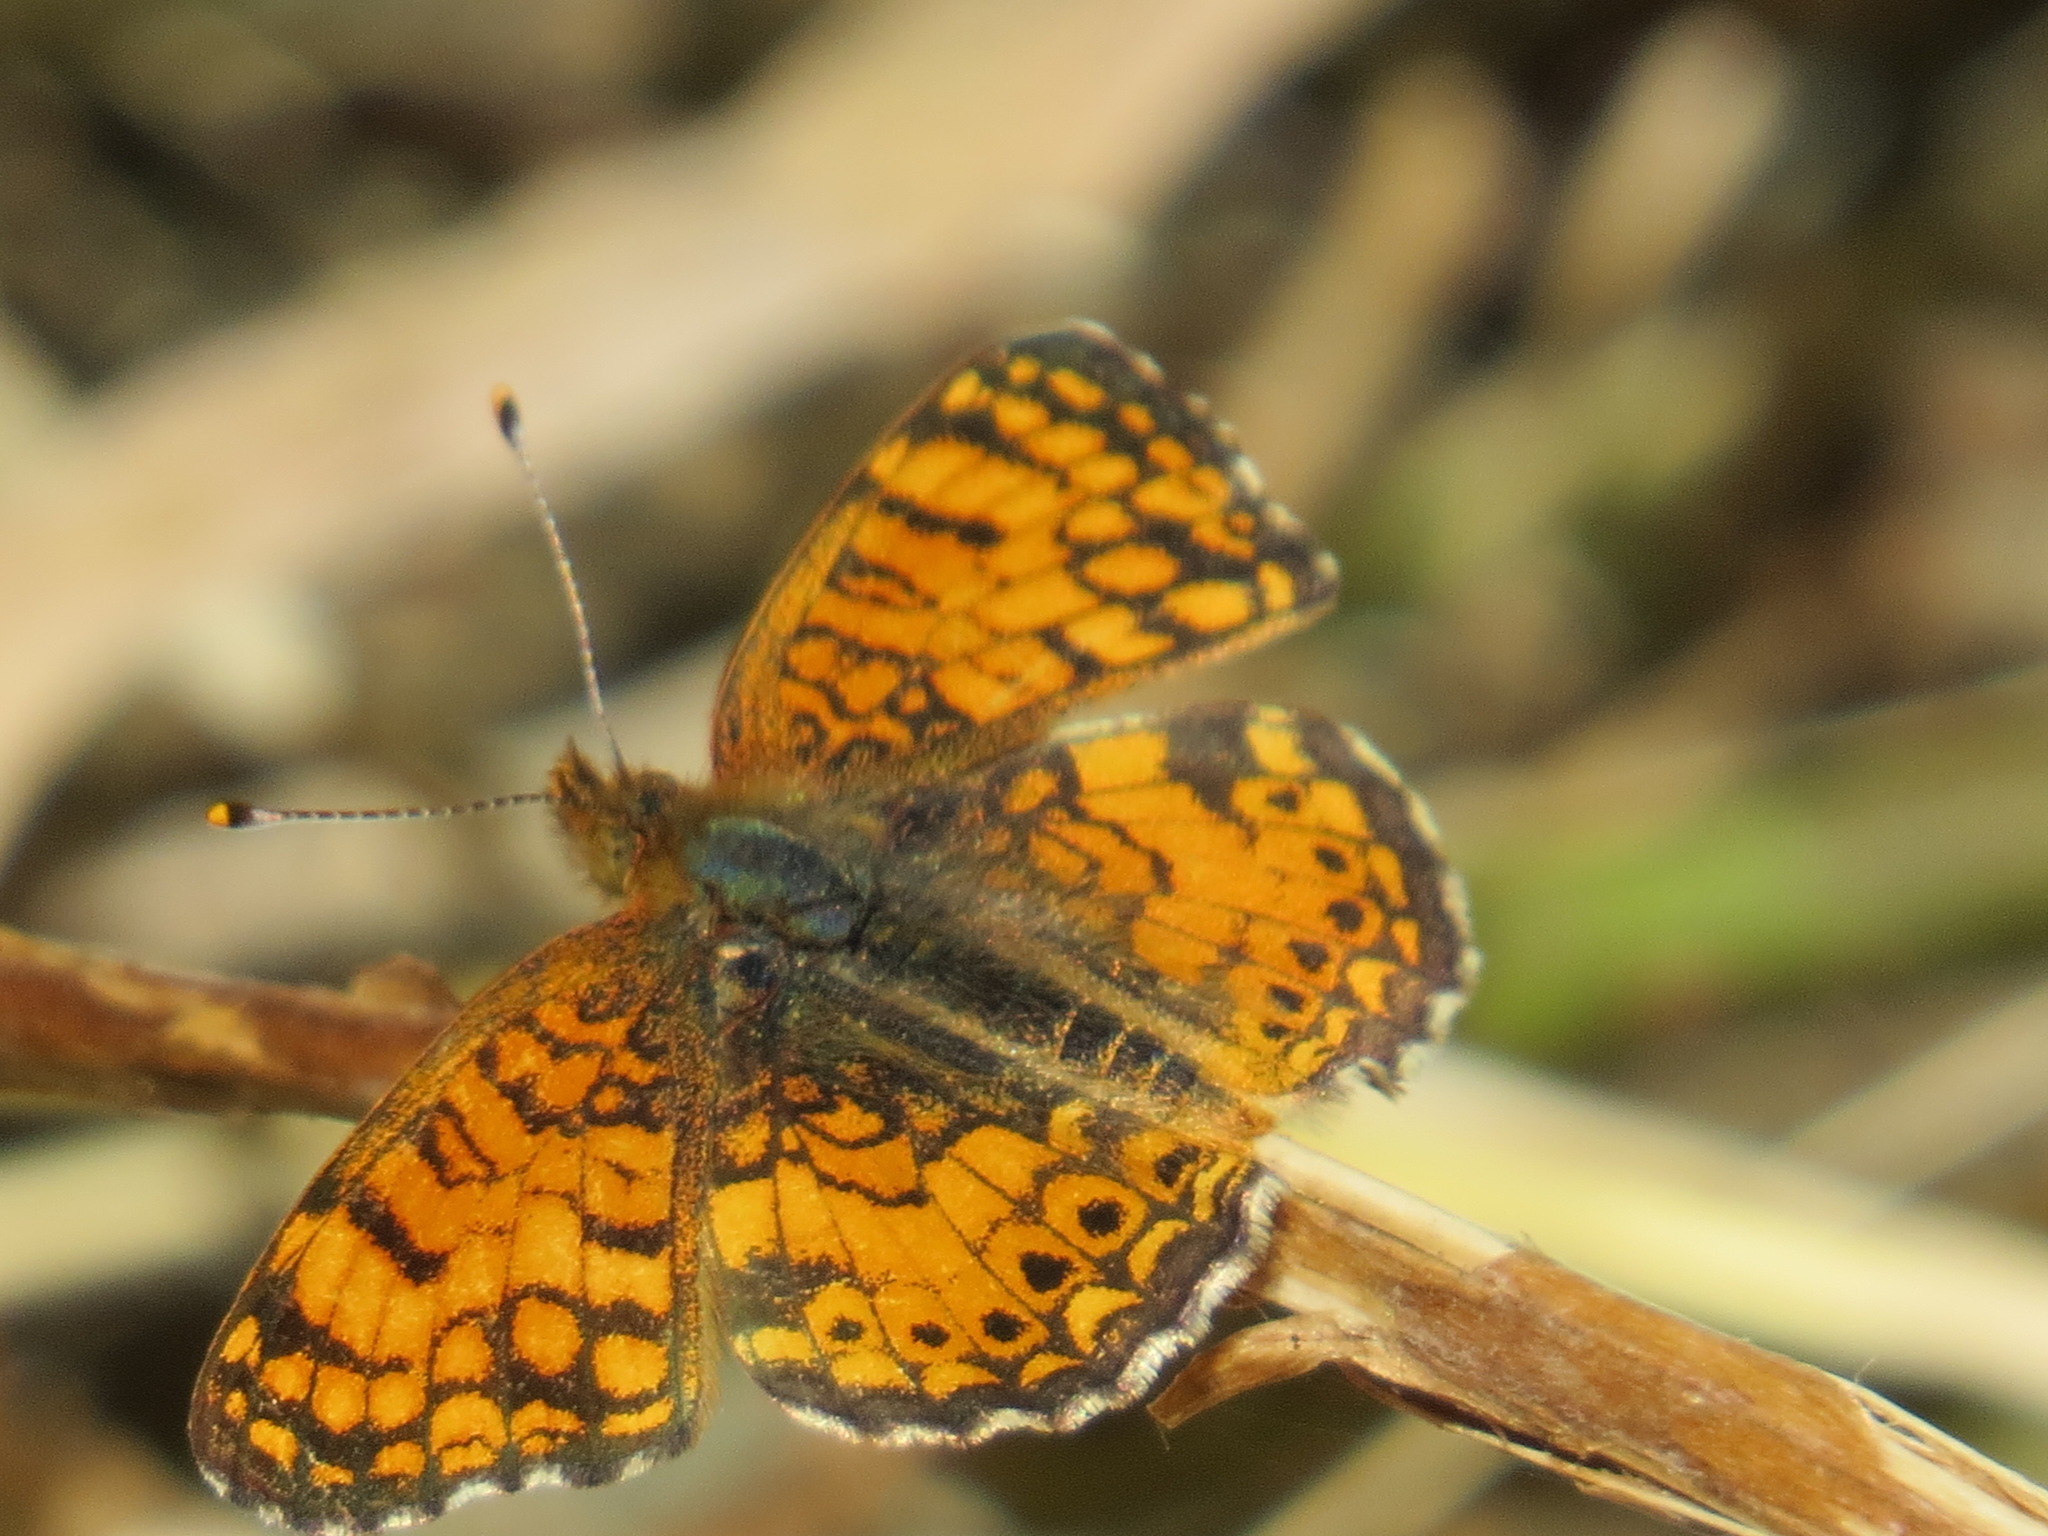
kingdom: Animalia
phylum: Arthropoda
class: Insecta
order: Lepidoptera
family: Nymphalidae
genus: Eresia
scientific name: Eresia aveyrona
